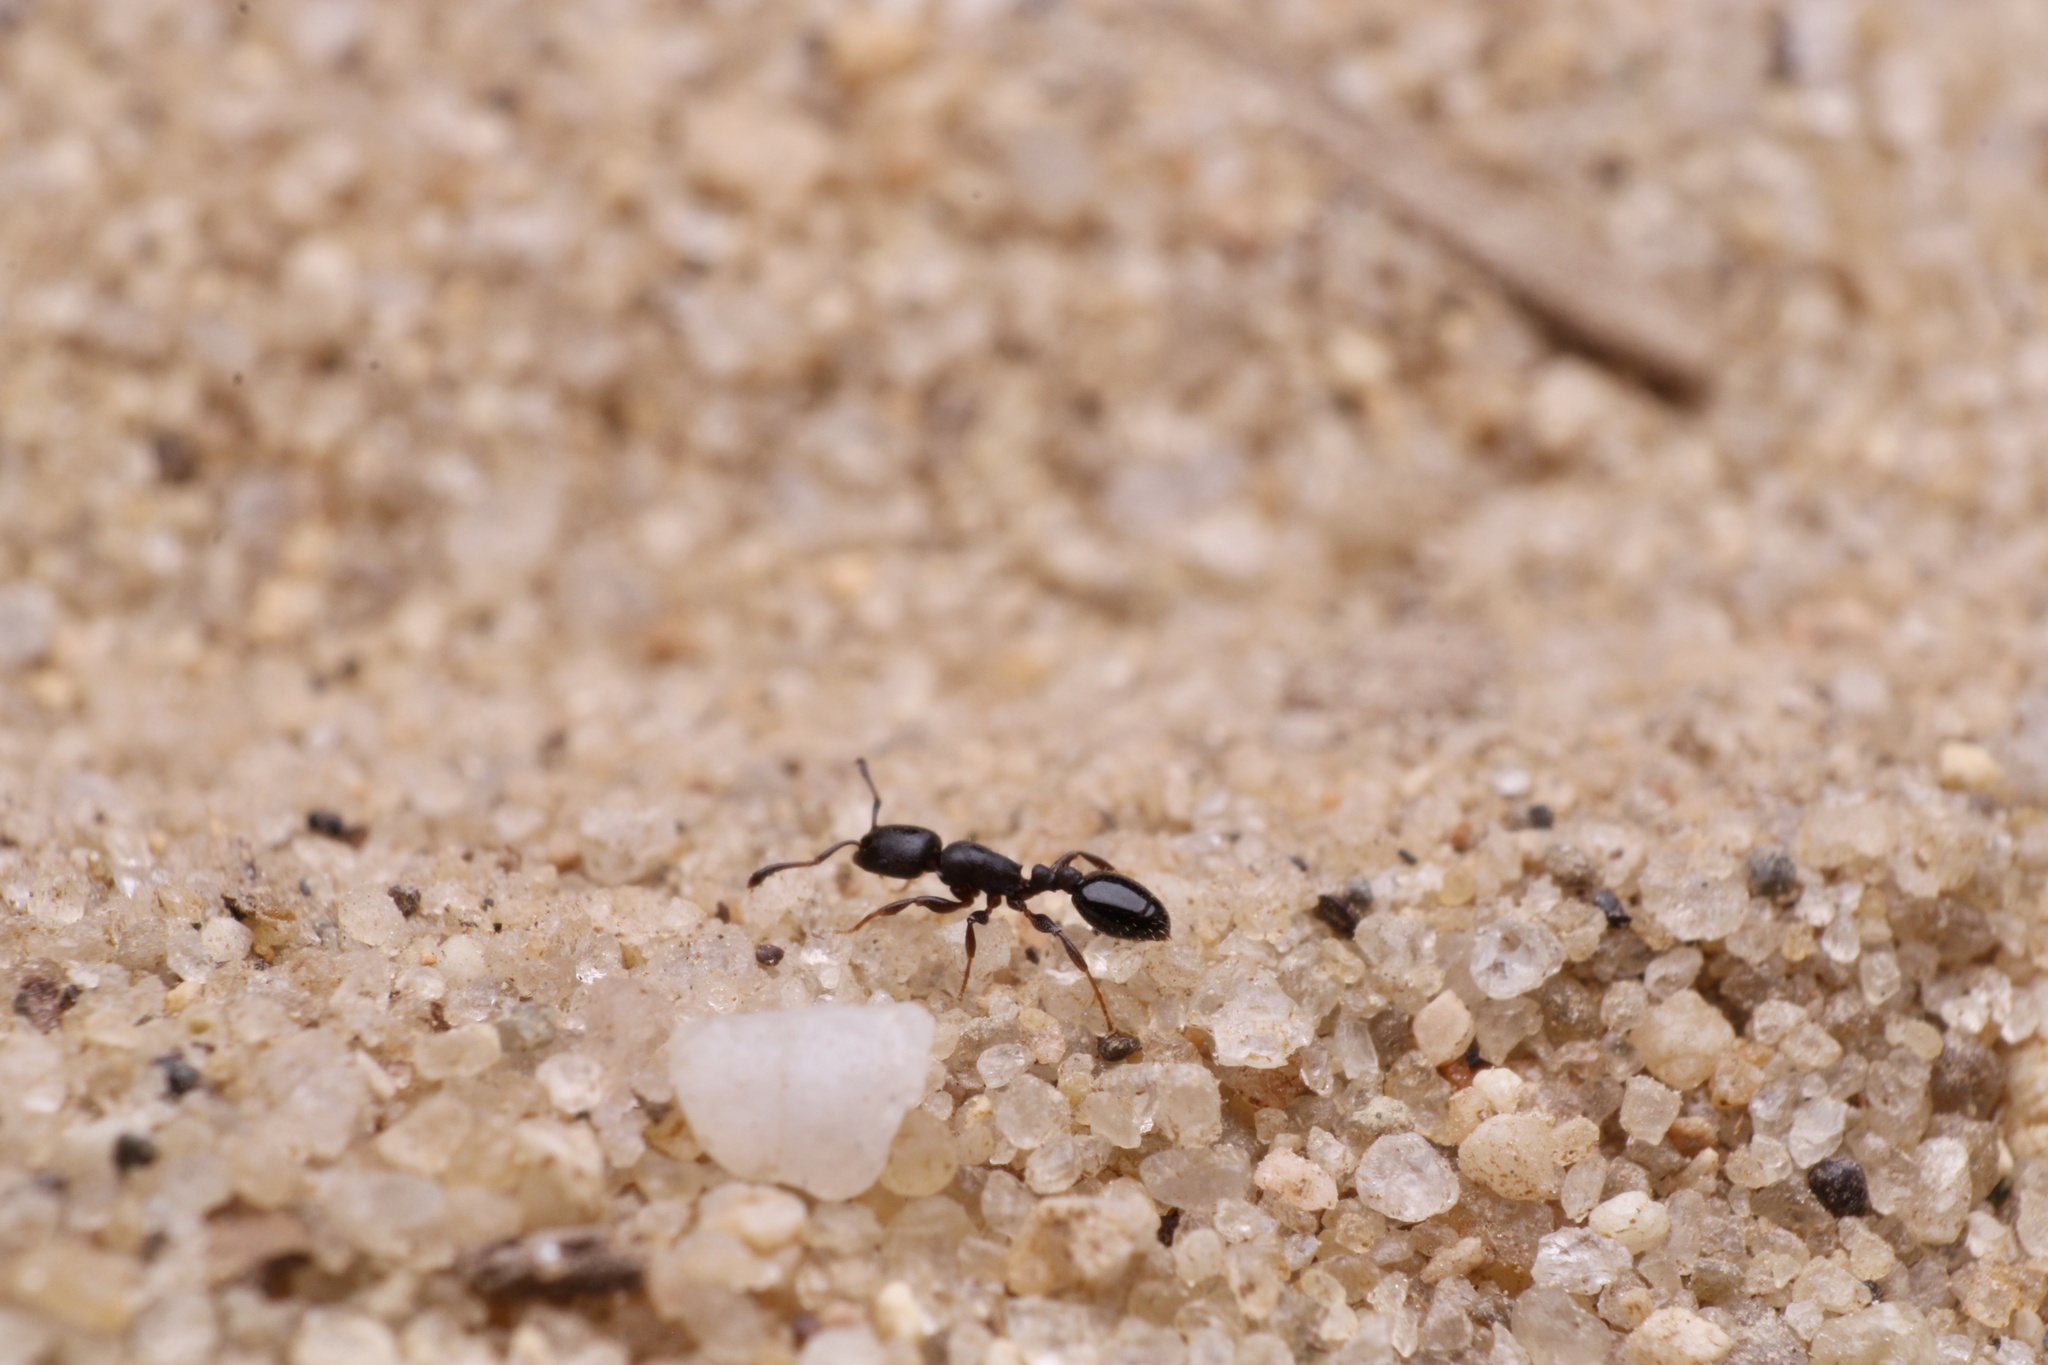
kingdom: Animalia
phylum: Arthropoda
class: Insecta
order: Hymenoptera
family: Formicidae
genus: Leptothorax
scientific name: Leptothorax schaumii
